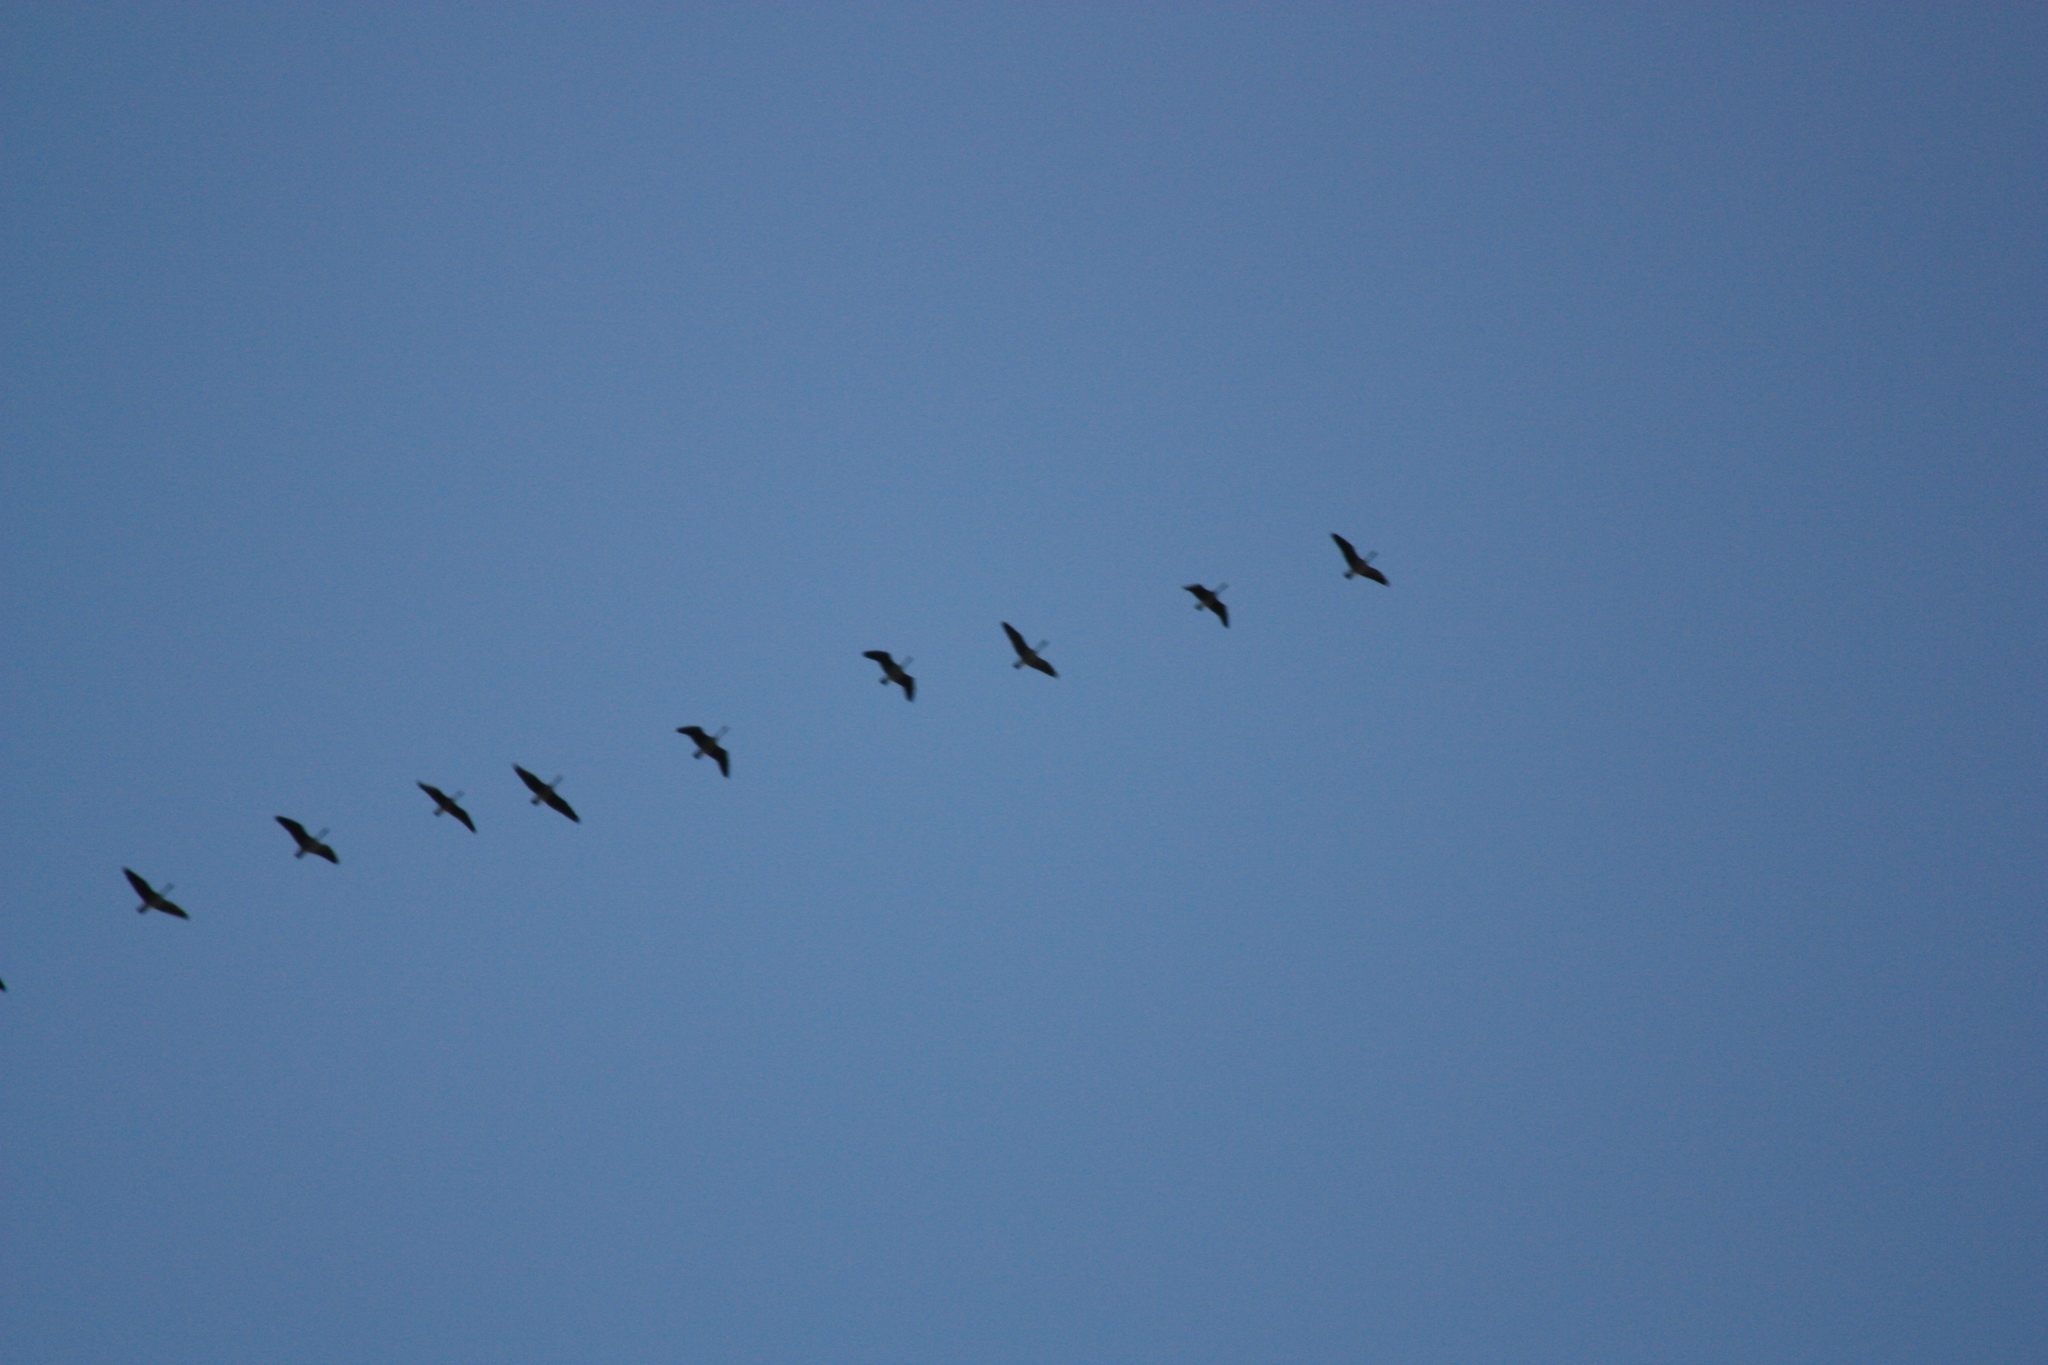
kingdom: Animalia
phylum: Chordata
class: Aves
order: Anseriformes
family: Anatidae
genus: Branta
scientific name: Branta canadensis
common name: Canada goose
